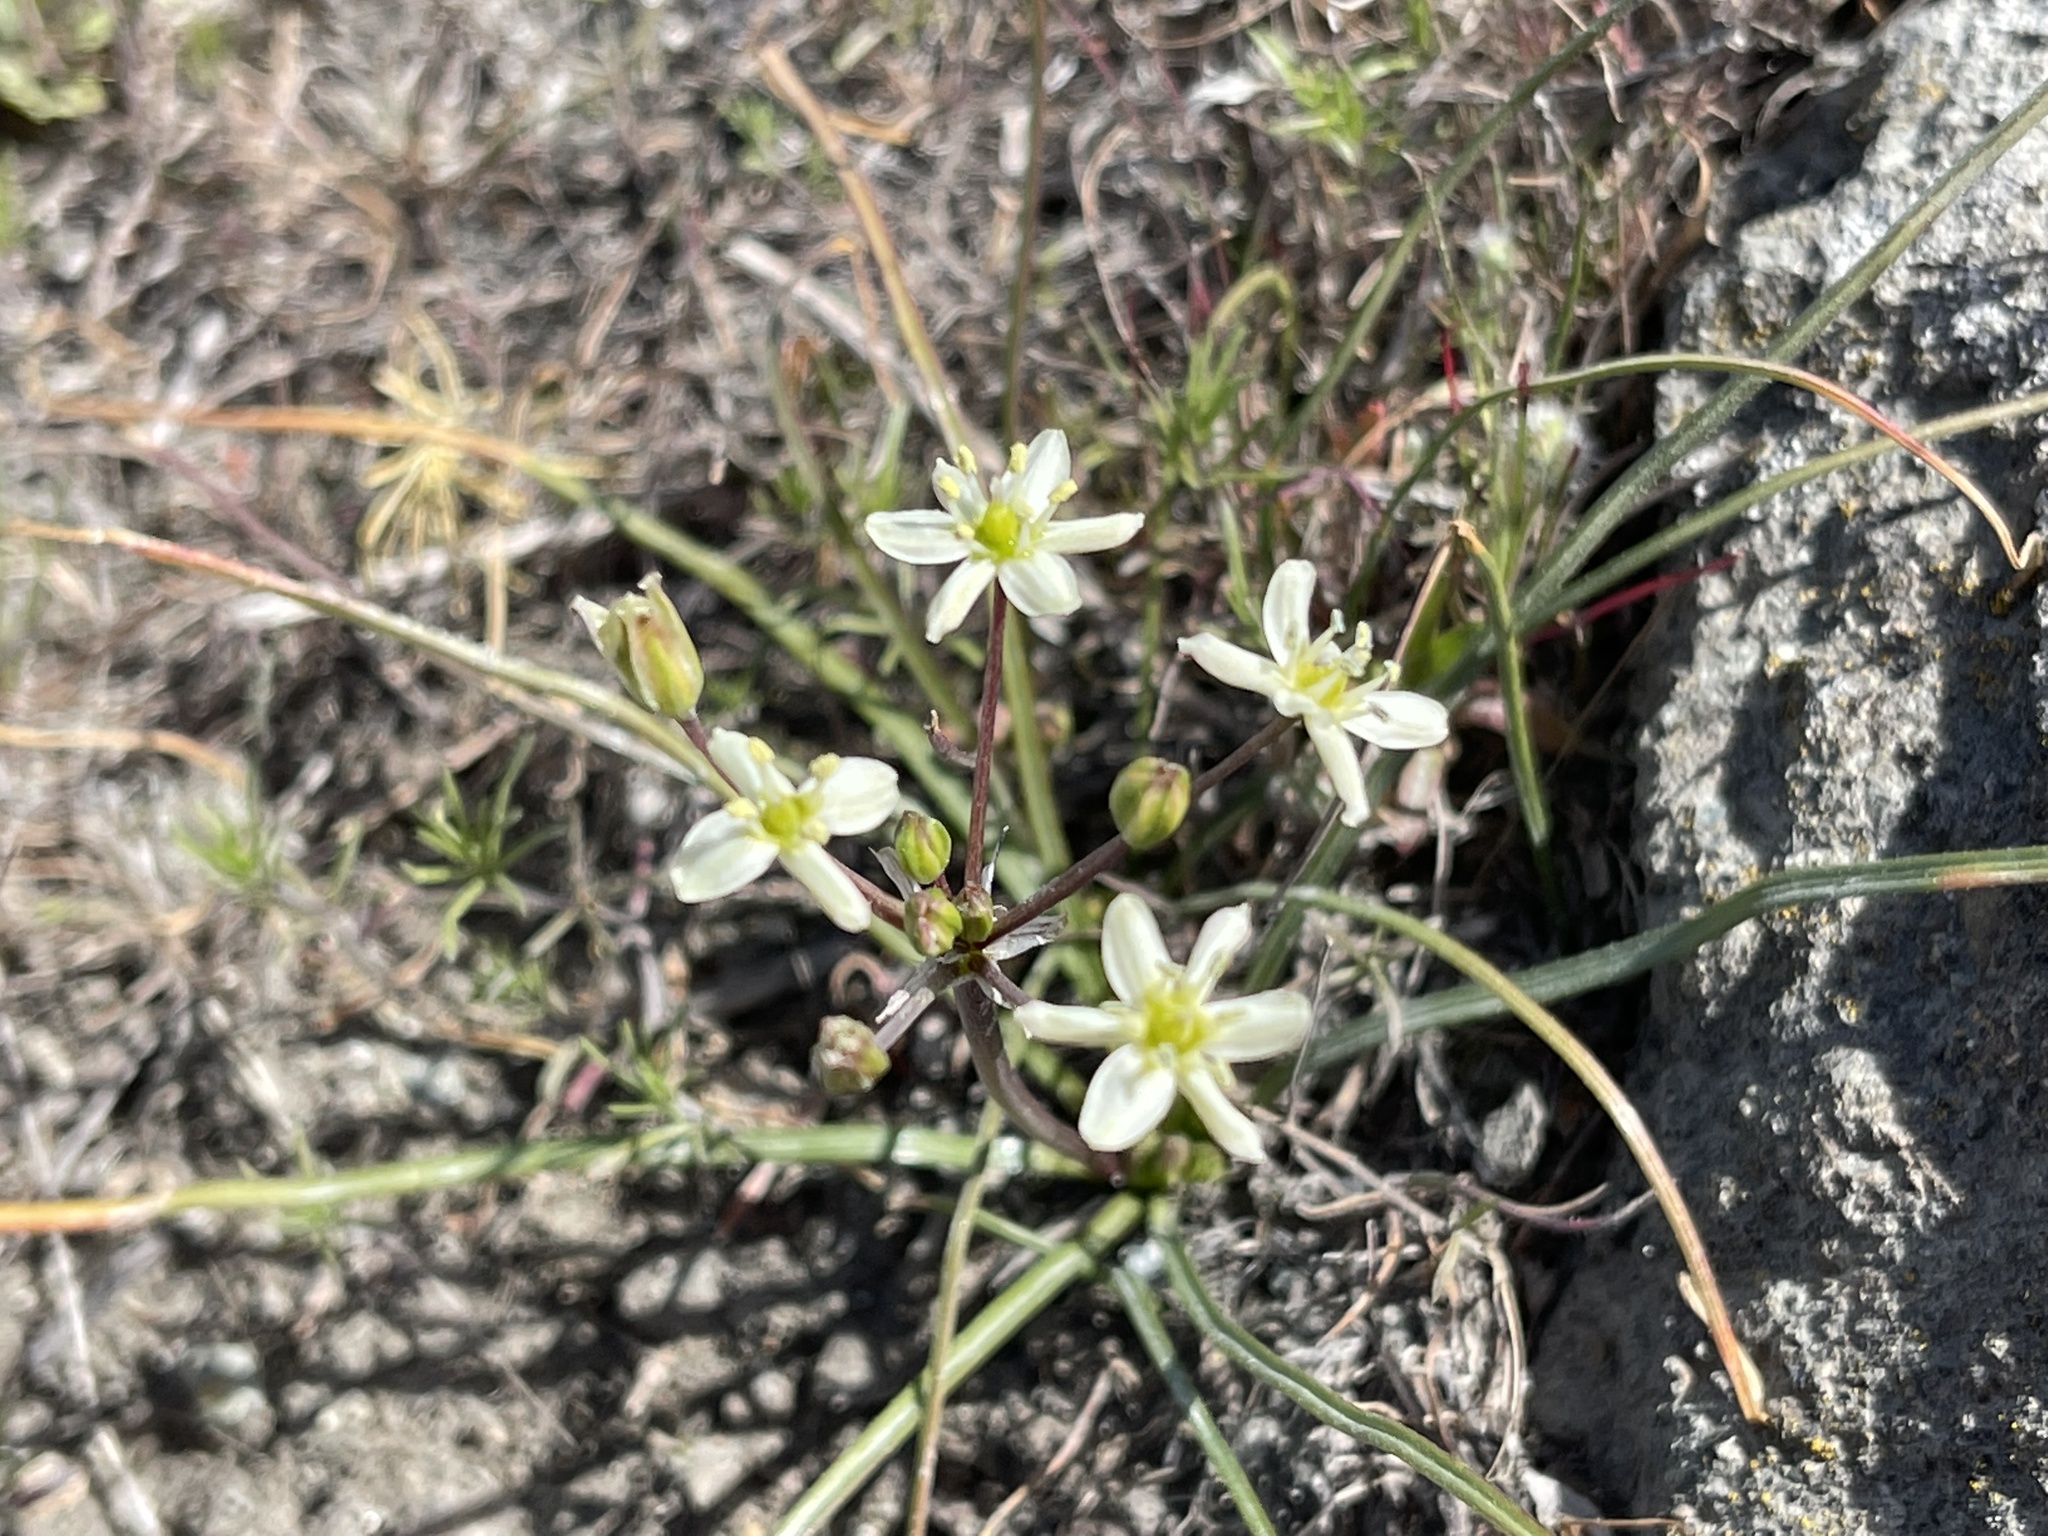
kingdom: Plantae
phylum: Tracheophyta
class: Liliopsida
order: Asparagales
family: Asparagaceae
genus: Muilla
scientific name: Muilla maritima
